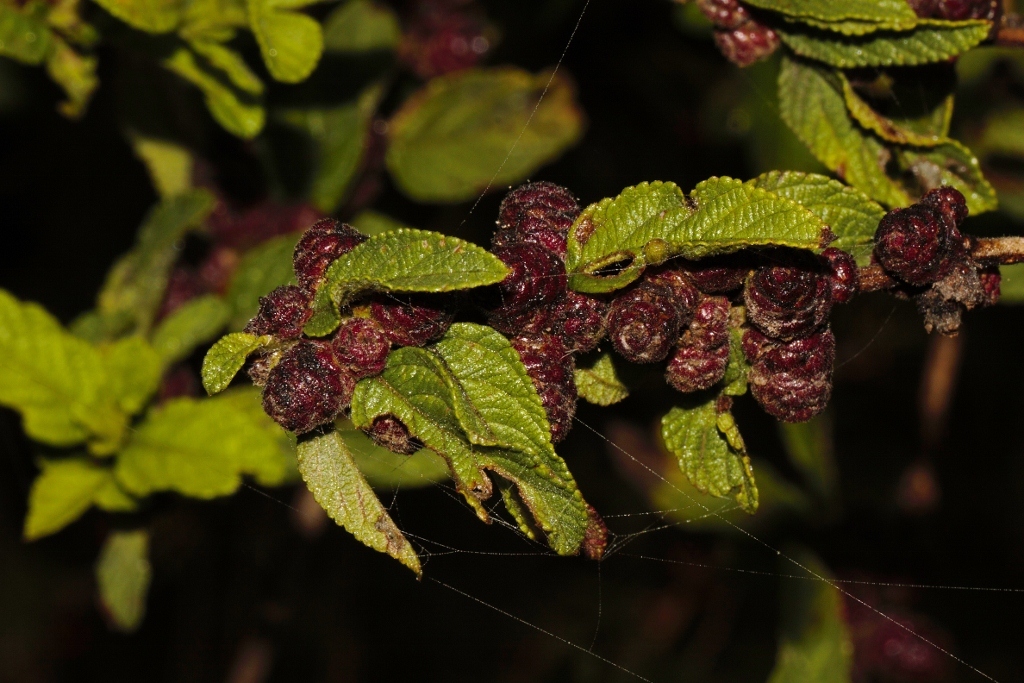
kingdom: Plantae
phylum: Tracheophyta
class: Magnoliopsida
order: Lamiales
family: Verbenaceae
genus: Lippia
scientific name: Lippia javanica
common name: Lemonbush
